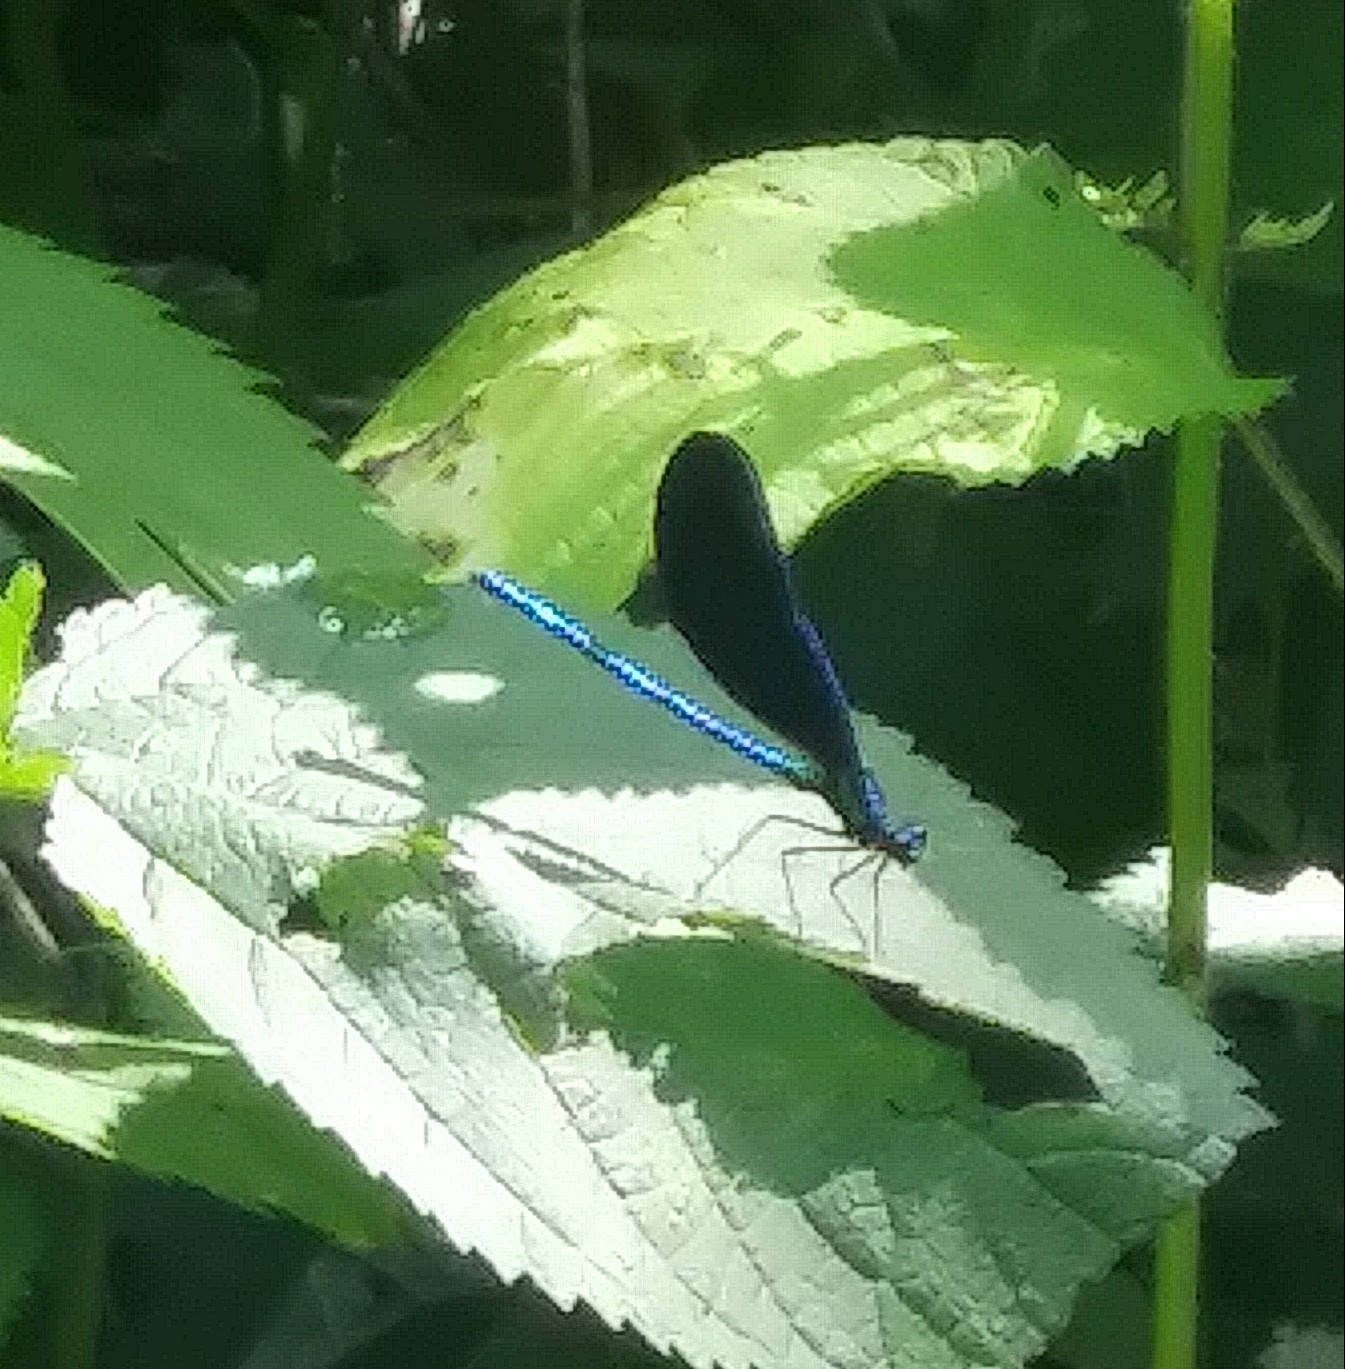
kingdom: Animalia
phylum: Arthropoda
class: Insecta
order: Odonata
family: Calopterygidae
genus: Calopteryx
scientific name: Calopteryx maculata
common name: Ebony jewelwing
